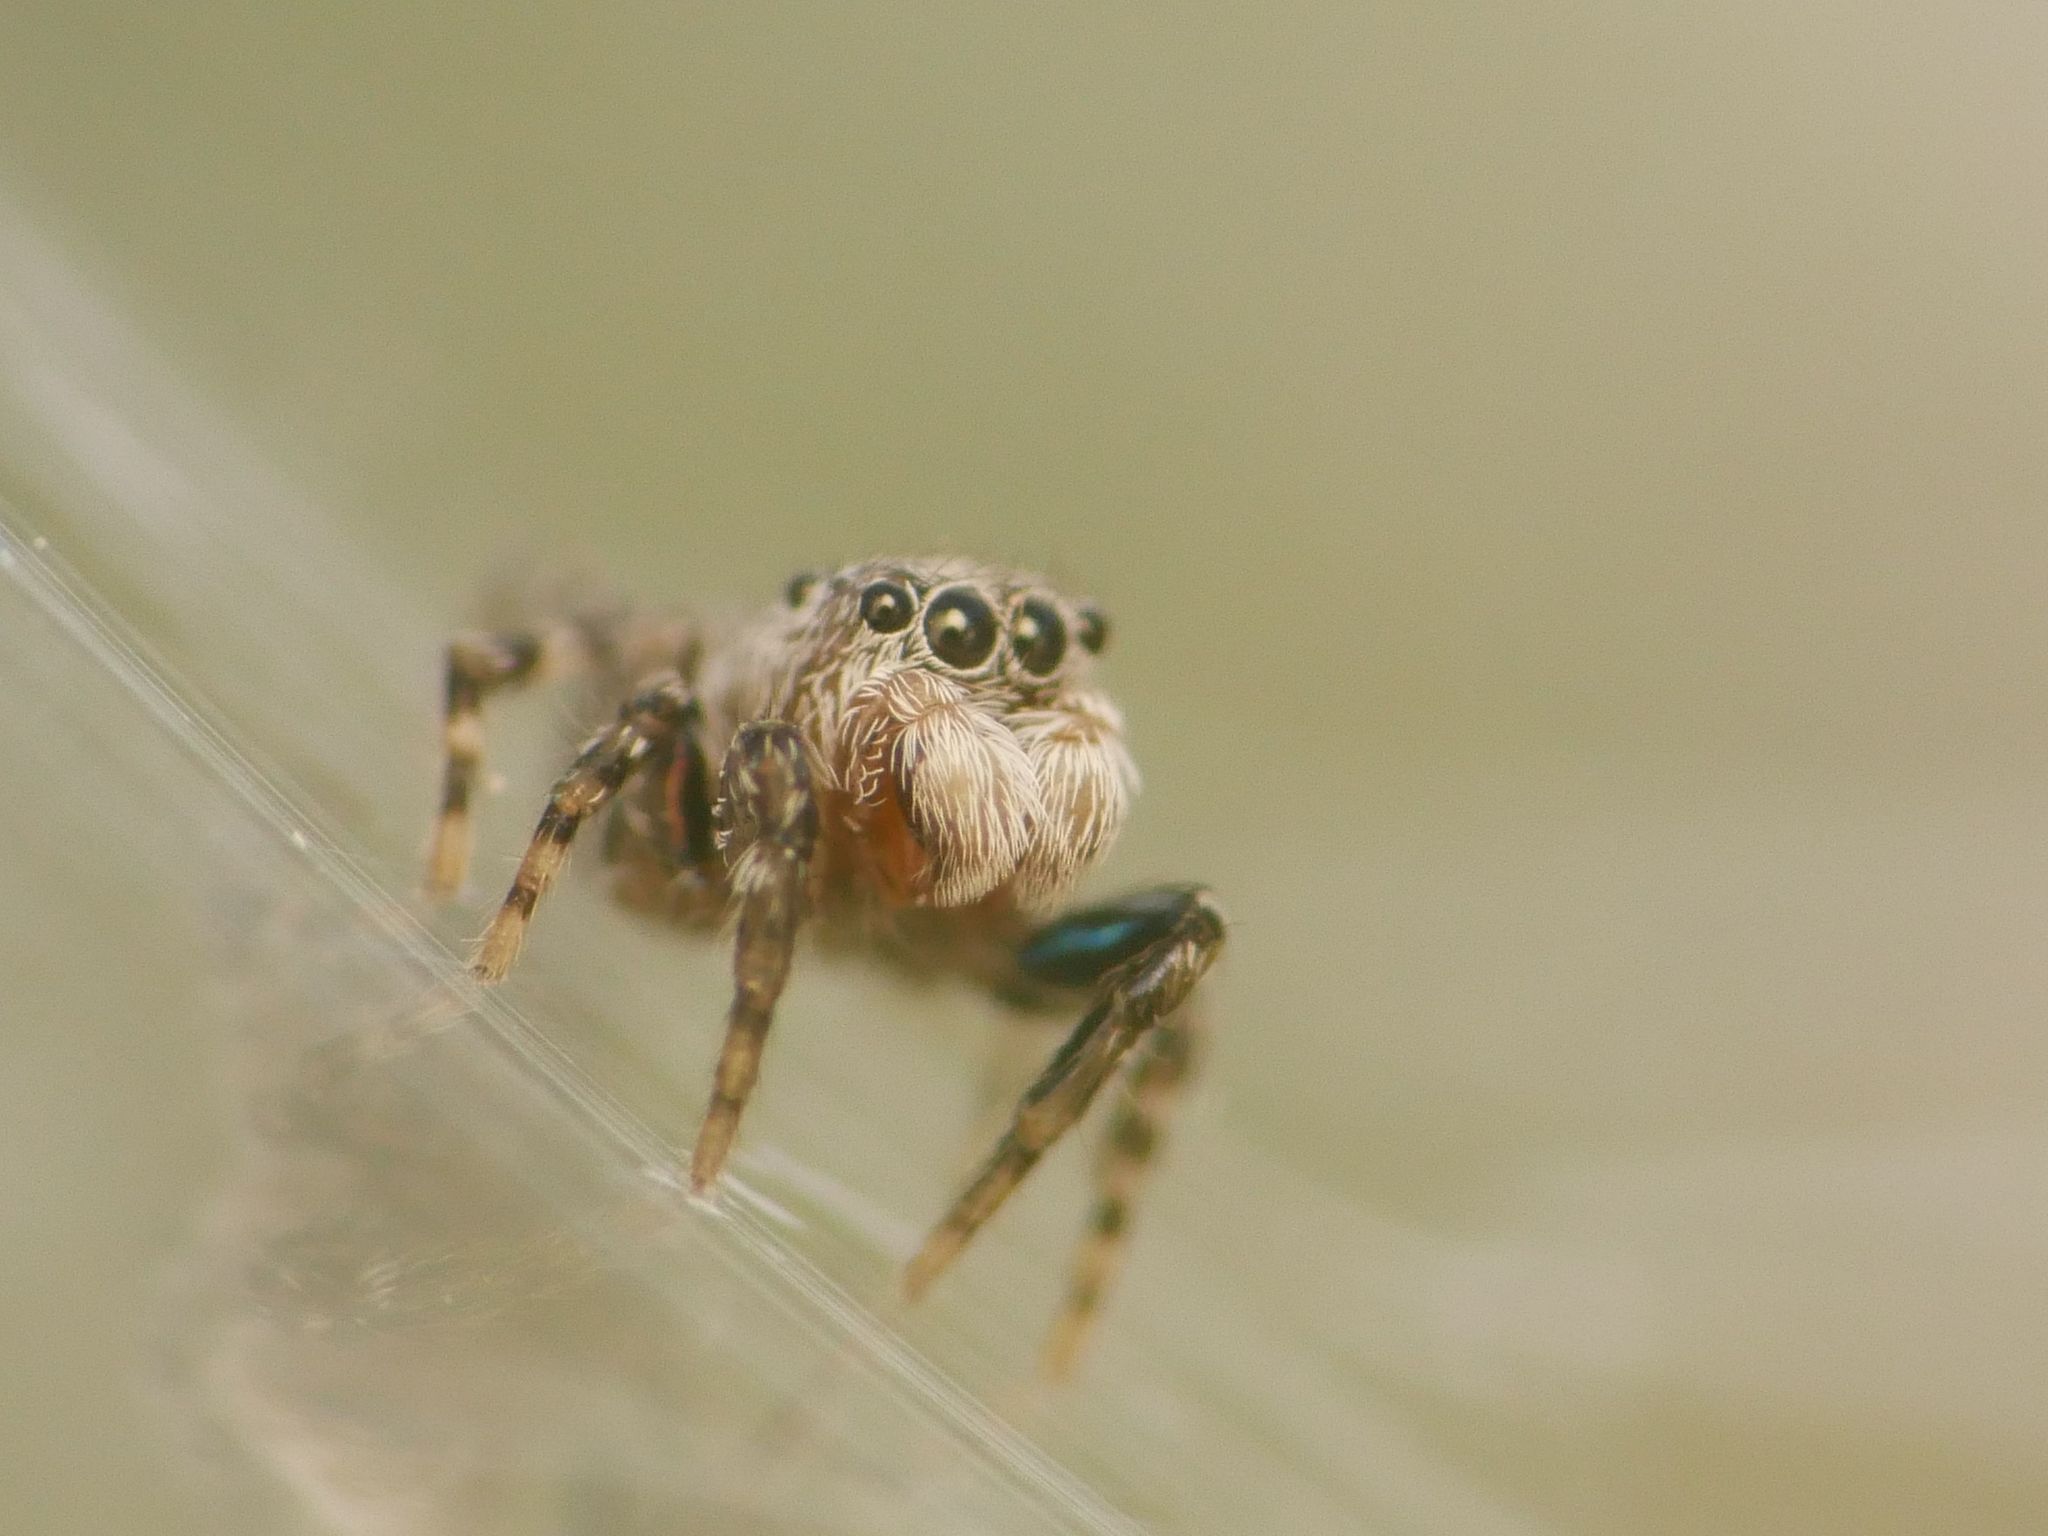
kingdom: Animalia
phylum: Arthropoda
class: Arachnida
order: Araneae
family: Salticidae
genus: Talavera
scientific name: Talavera minuta
